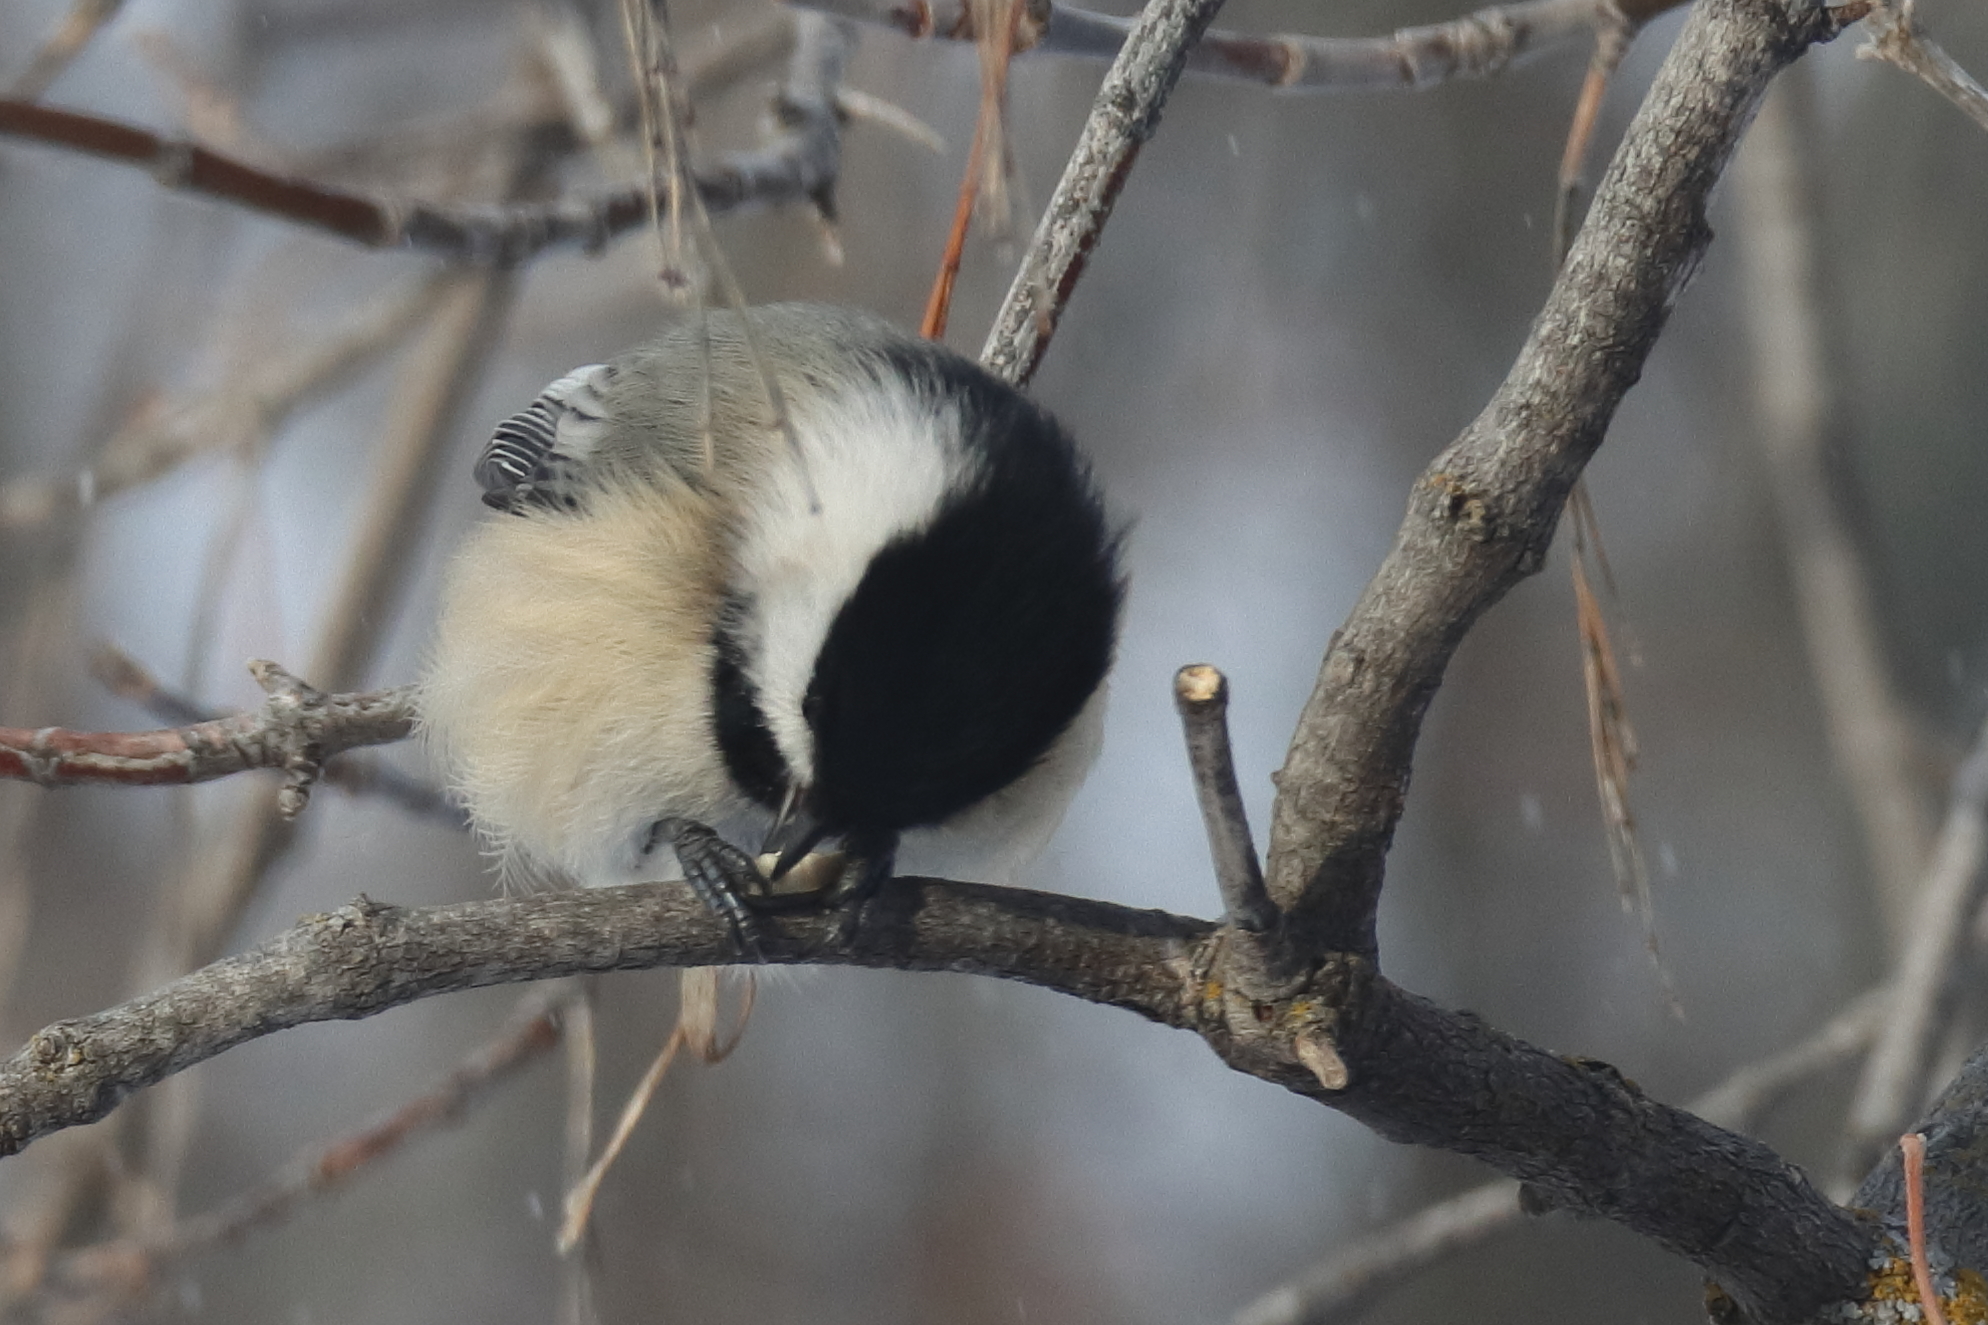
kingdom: Animalia
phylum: Chordata
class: Aves
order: Passeriformes
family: Paridae
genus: Poecile
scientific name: Poecile atricapillus
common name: Black-capped chickadee
